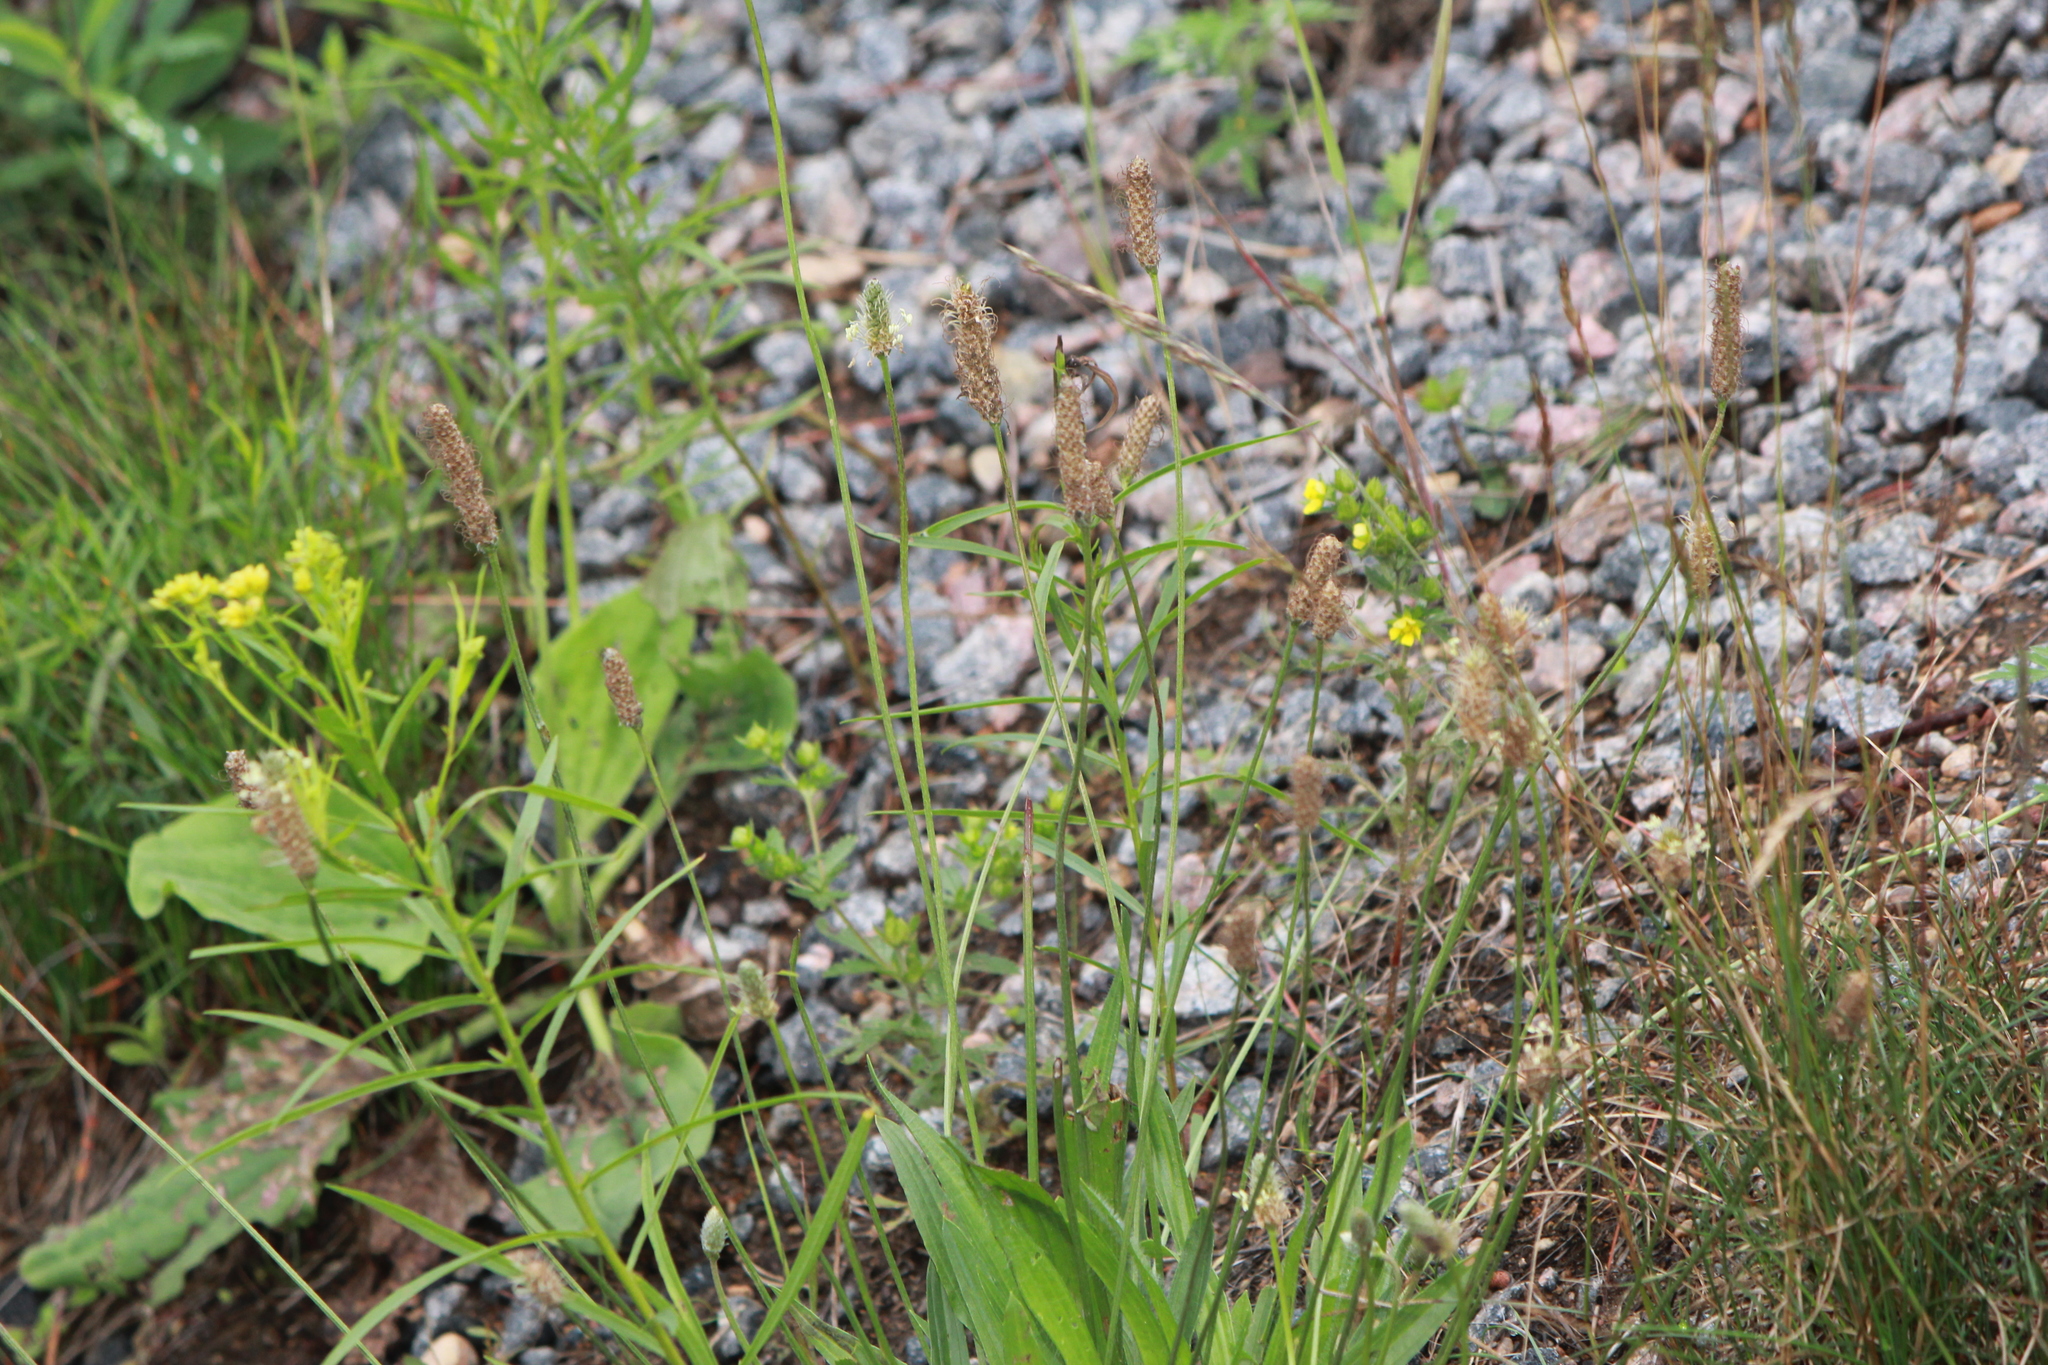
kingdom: Plantae
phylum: Tracheophyta
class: Magnoliopsida
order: Lamiales
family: Plantaginaceae
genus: Plantago
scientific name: Plantago lanceolata
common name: Ribwort plantain
